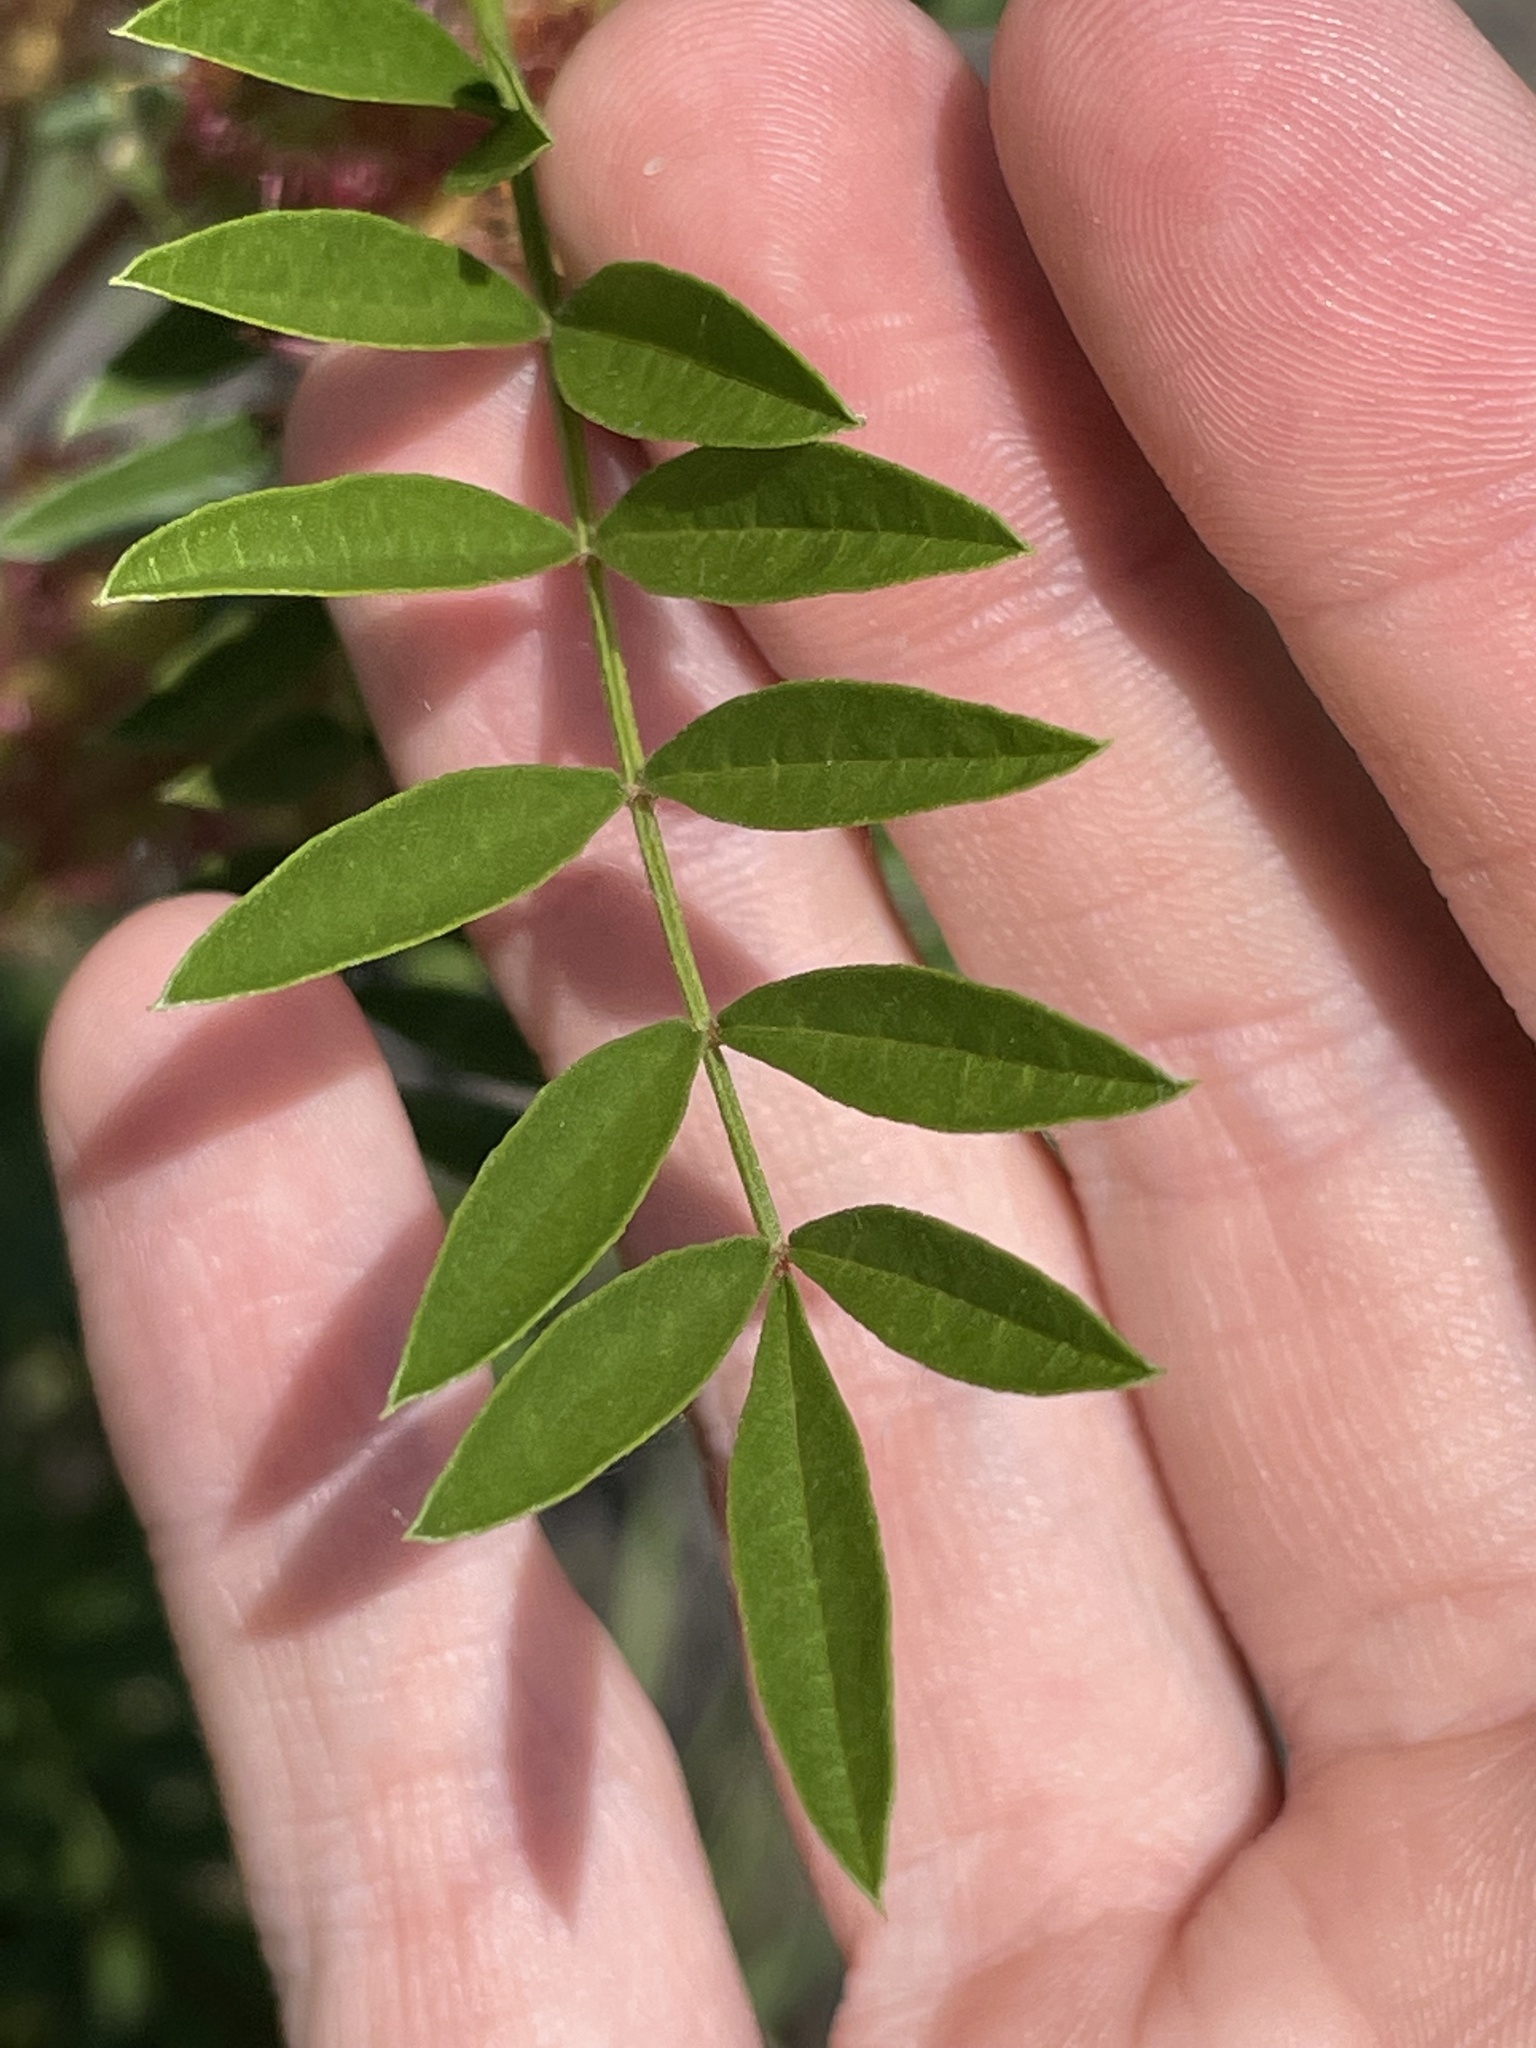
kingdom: Plantae
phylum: Tracheophyta
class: Magnoliopsida
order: Fabales
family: Fabaceae
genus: Glycyrrhiza
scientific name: Glycyrrhiza lepidota
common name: American liquorice
